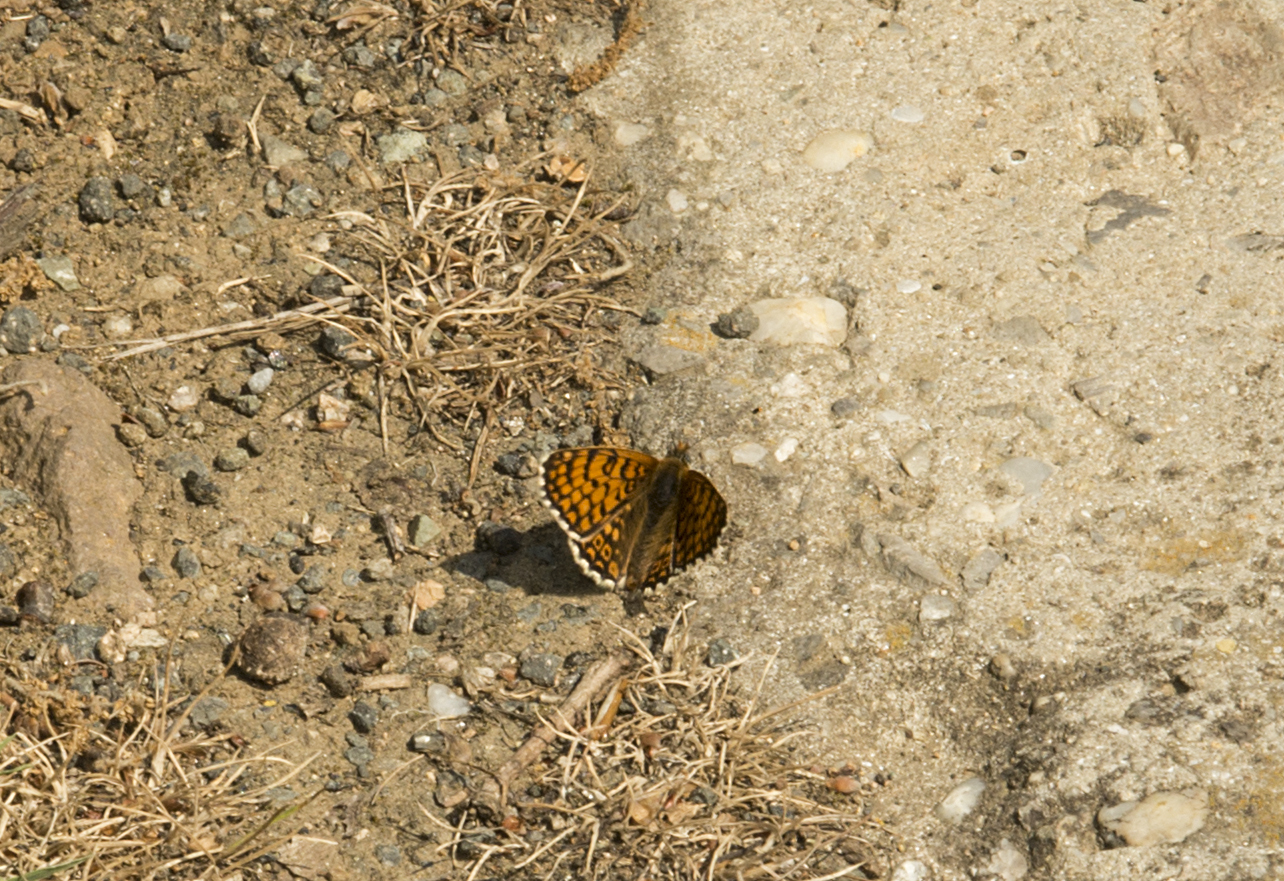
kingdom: Animalia
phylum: Arthropoda
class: Insecta
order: Lepidoptera
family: Nymphalidae
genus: Melitaea
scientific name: Melitaea cinxia
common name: Glanville fritillary
